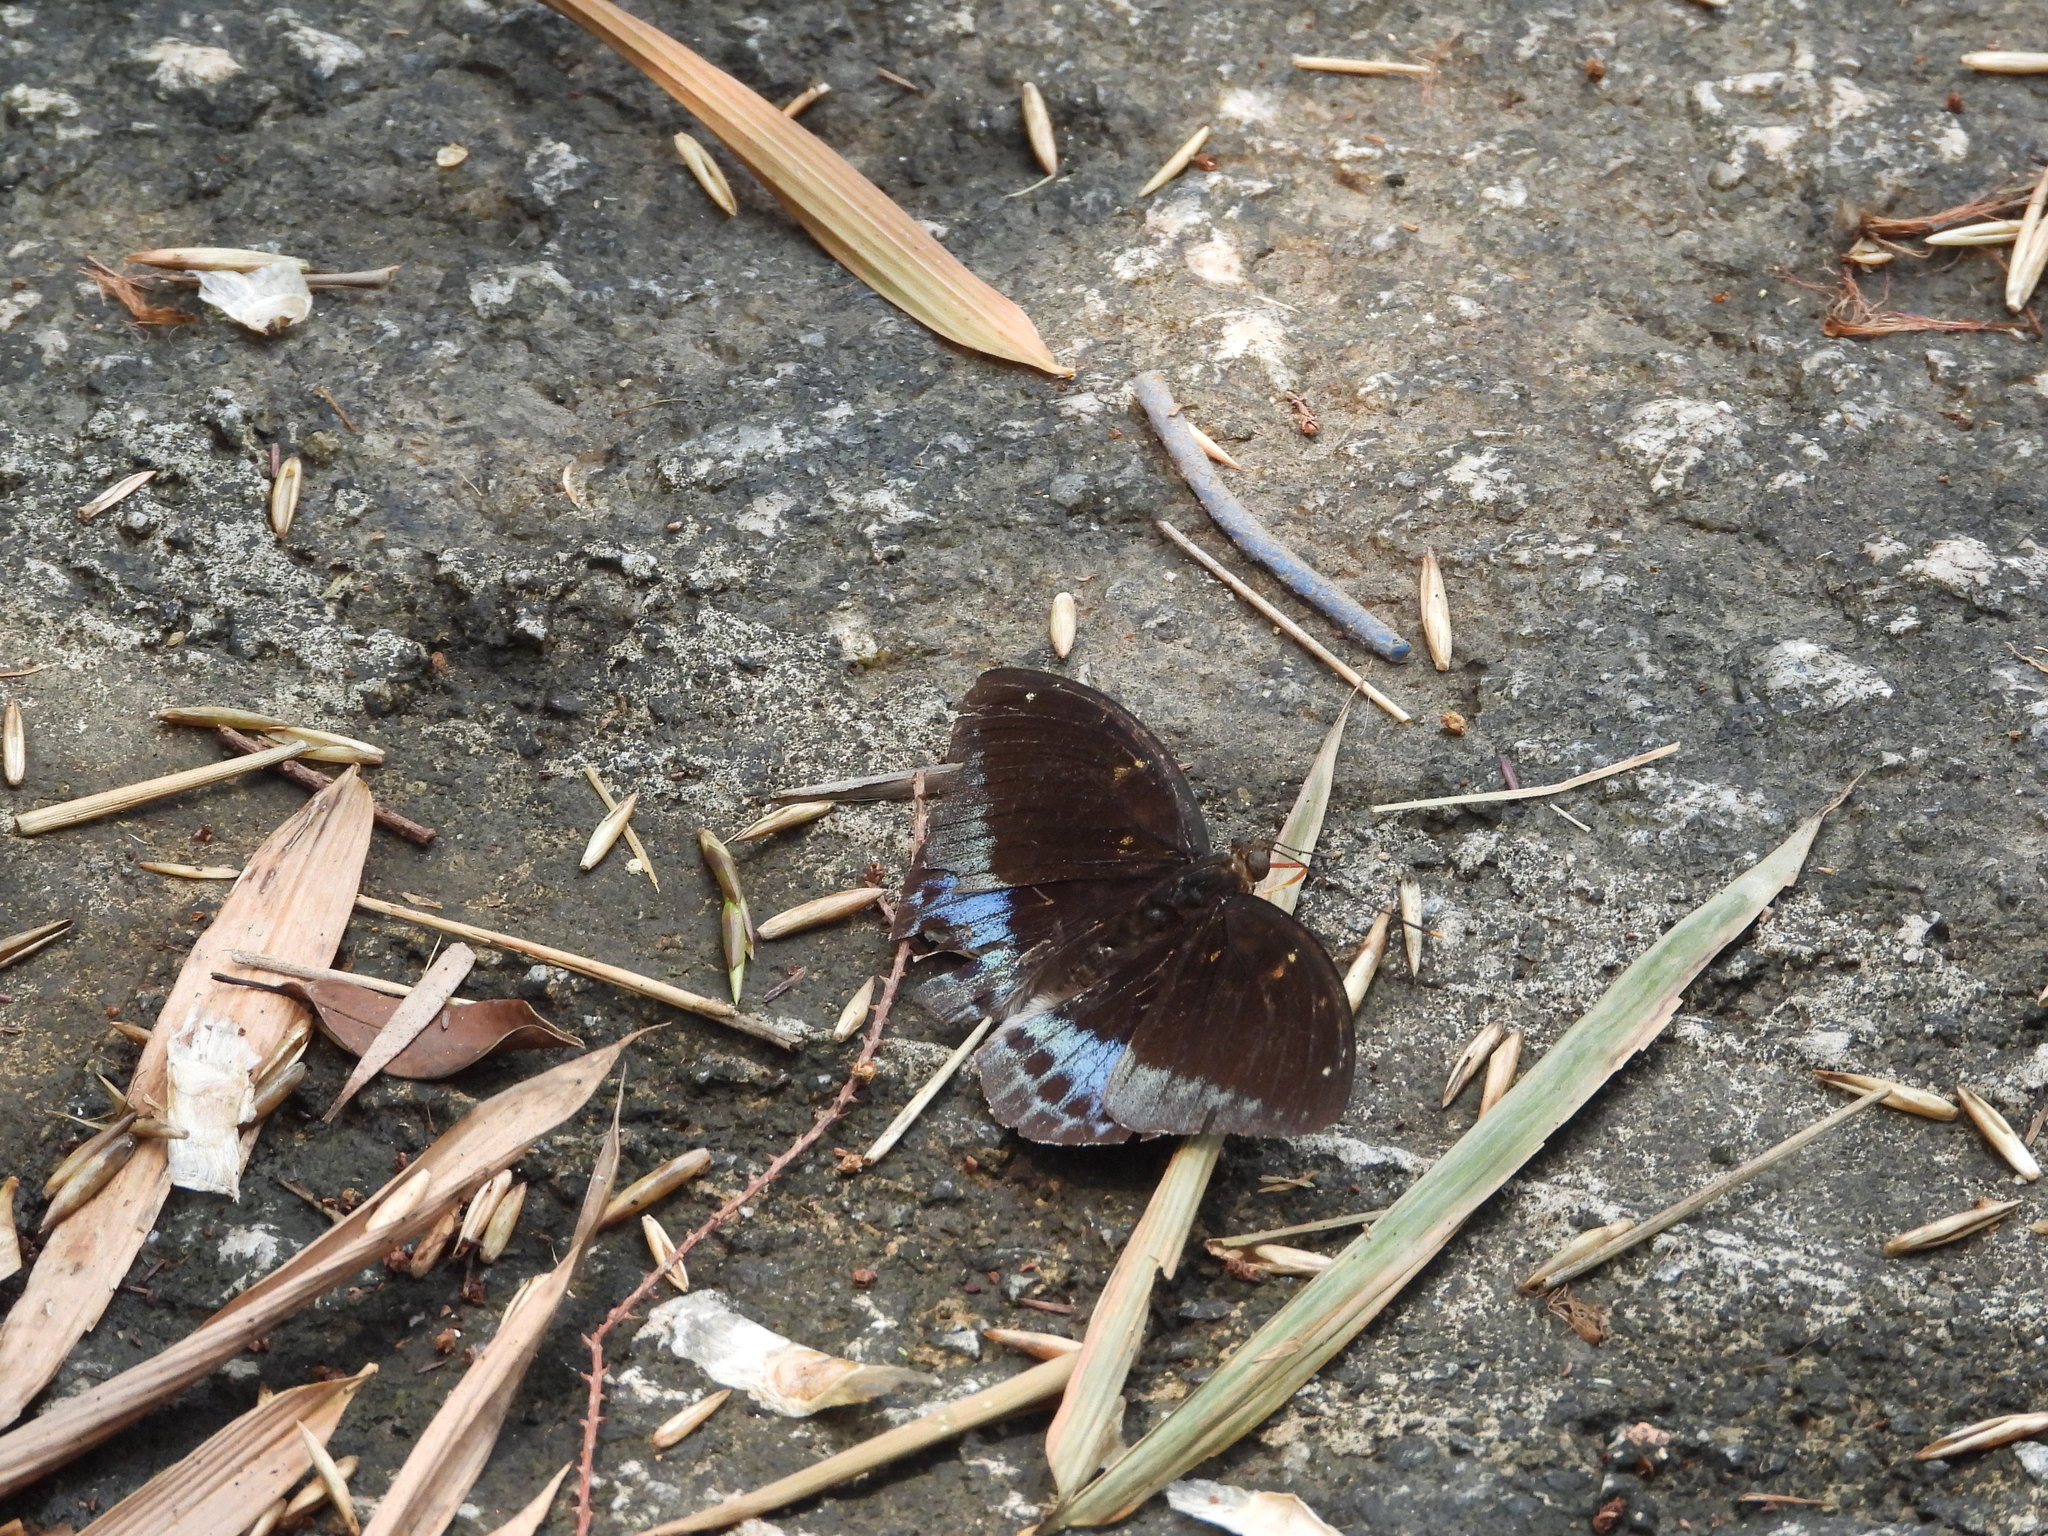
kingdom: Animalia
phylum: Arthropoda
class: Insecta
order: Lepidoptera
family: Nymphalidae
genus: Lexias
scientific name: Lexias pardalis
